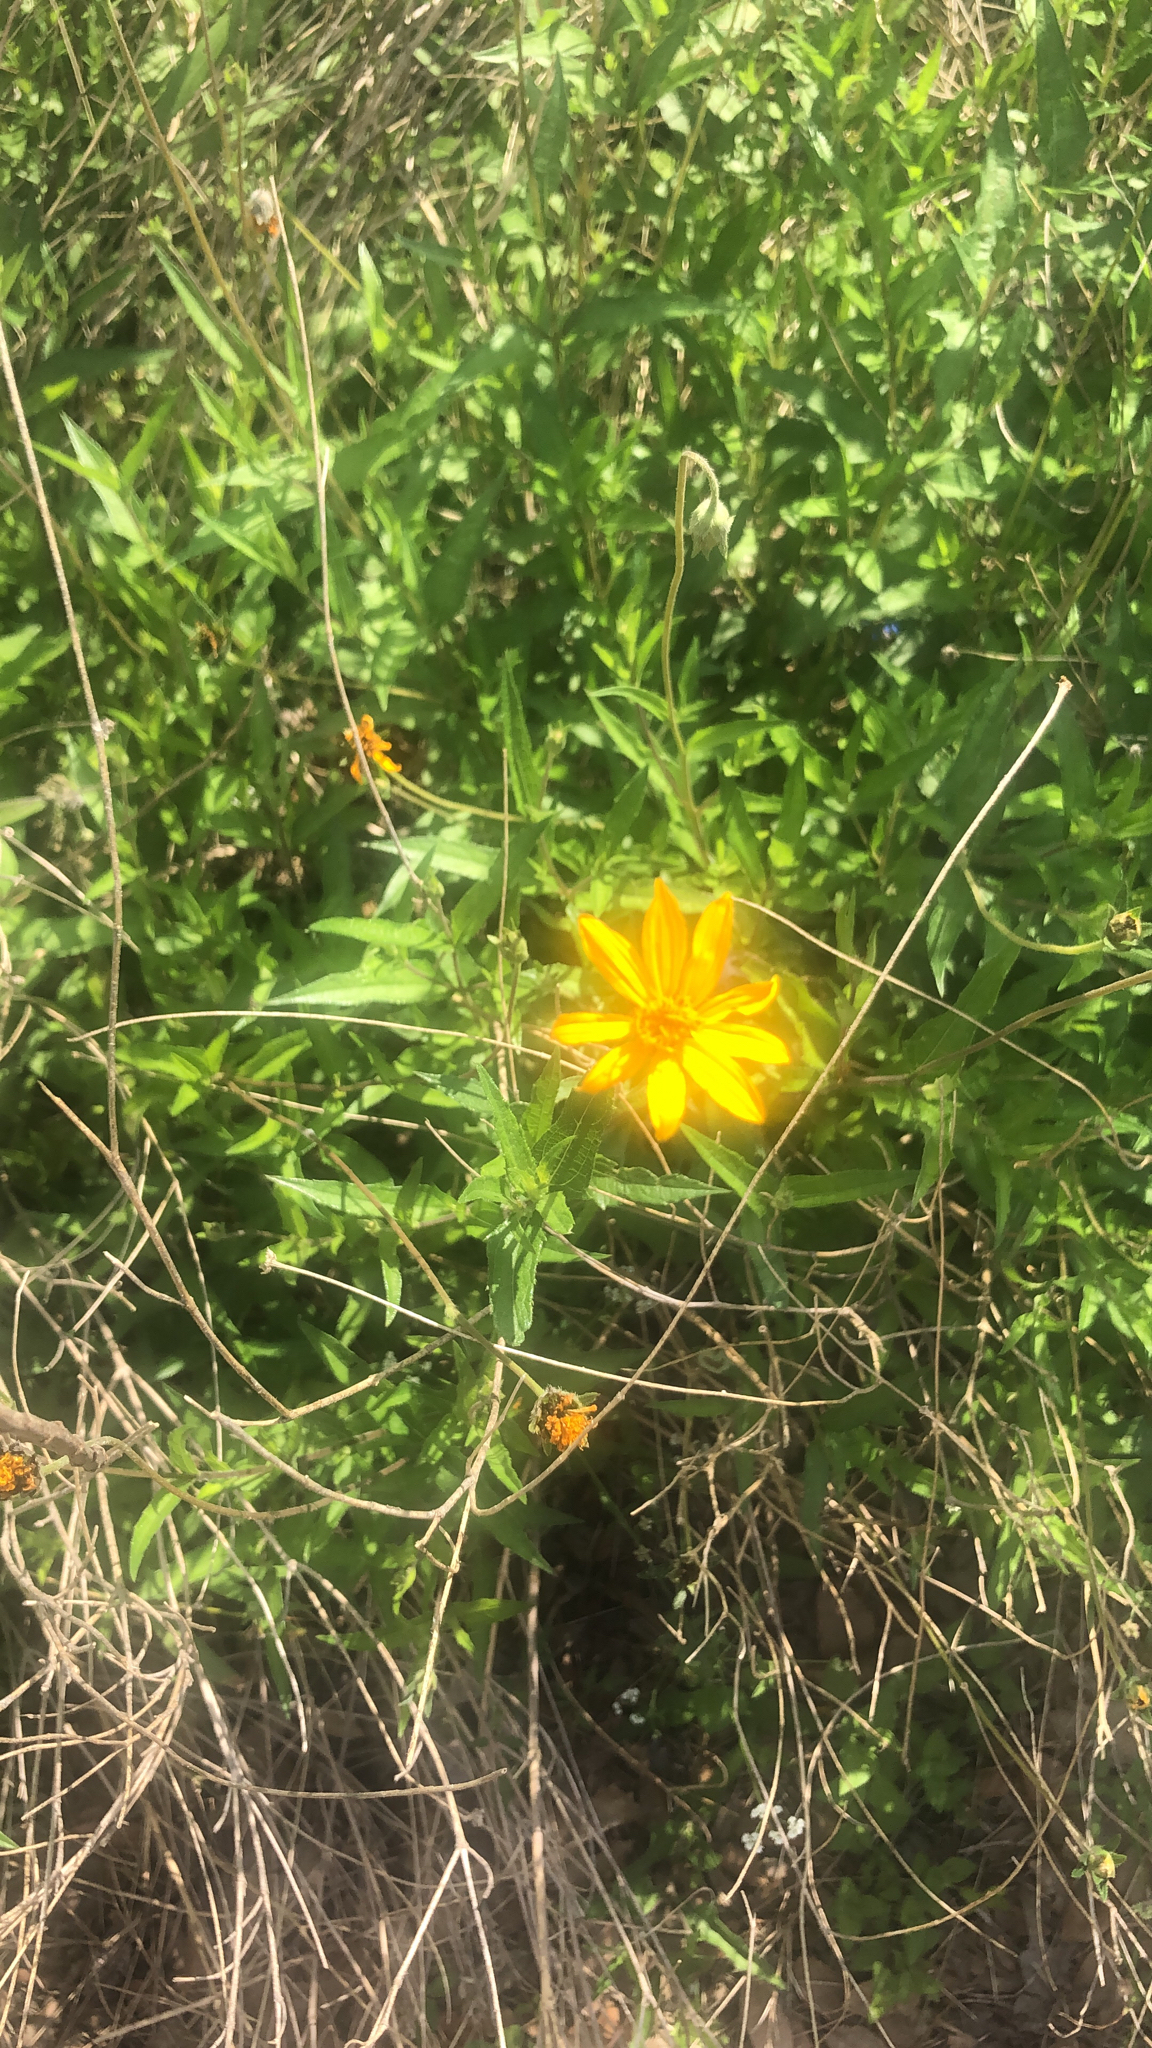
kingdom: Plantae
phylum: Tracheophyta
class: Magnoliopsida
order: Asterales
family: Asteraceae
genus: Wedelia
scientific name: Wedelia acapulcensis
